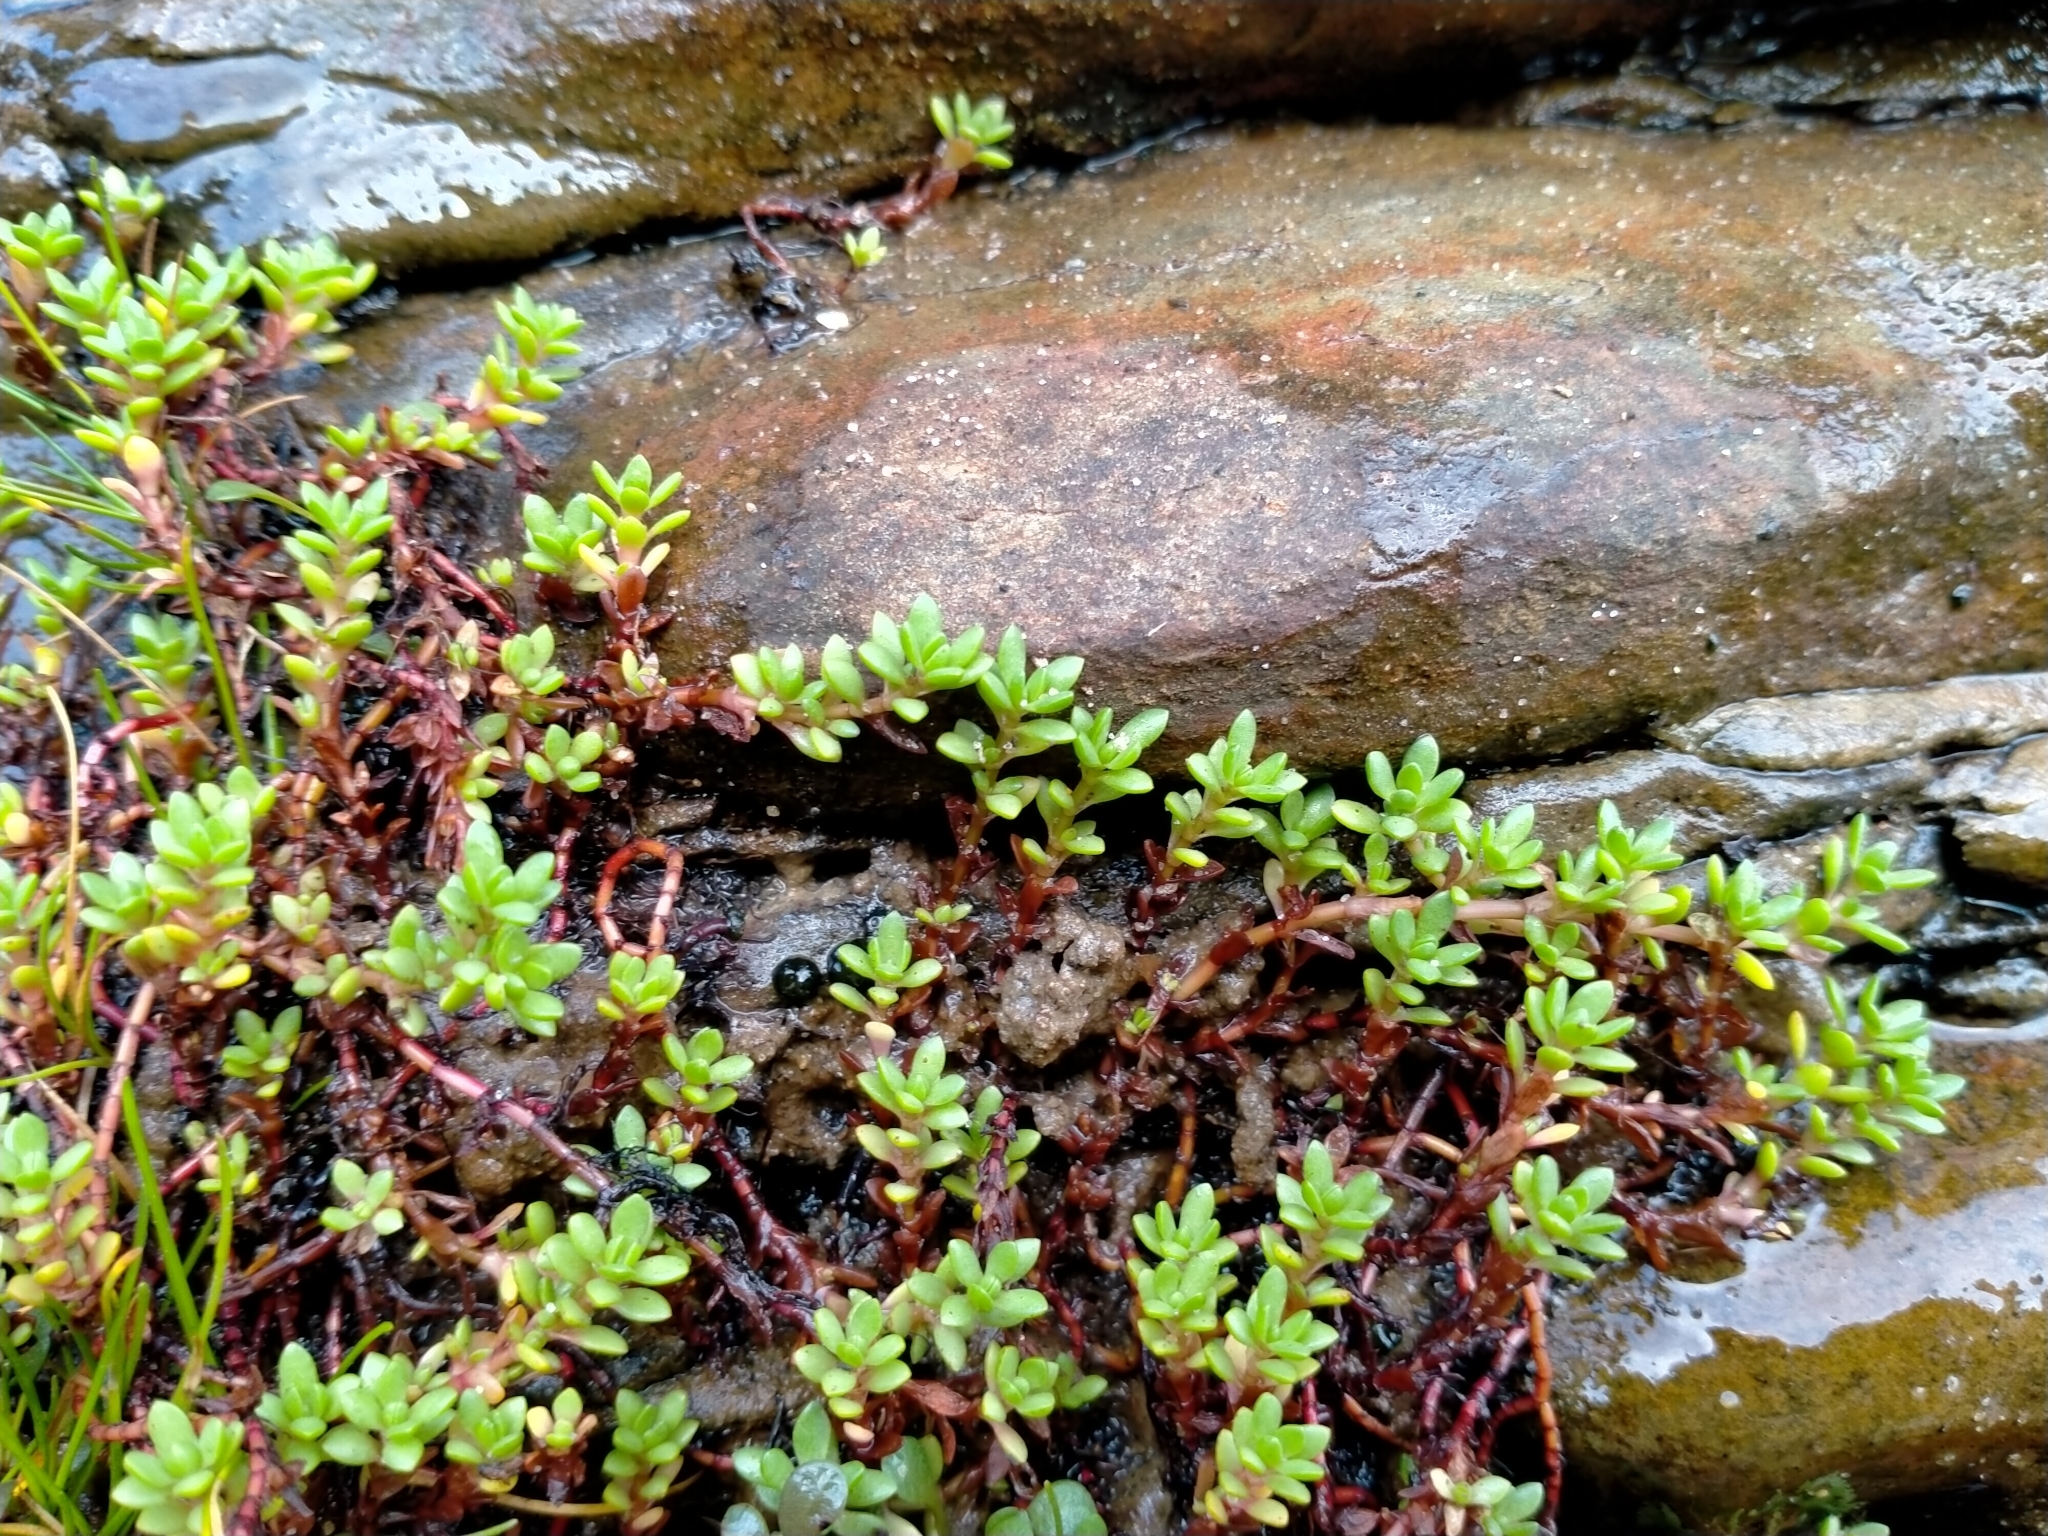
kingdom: Plantae
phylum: Tracheophyta
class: Magnoliopsida
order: Saxifragales
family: Crassulaceae
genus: Crassula
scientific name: Crassula moschata
